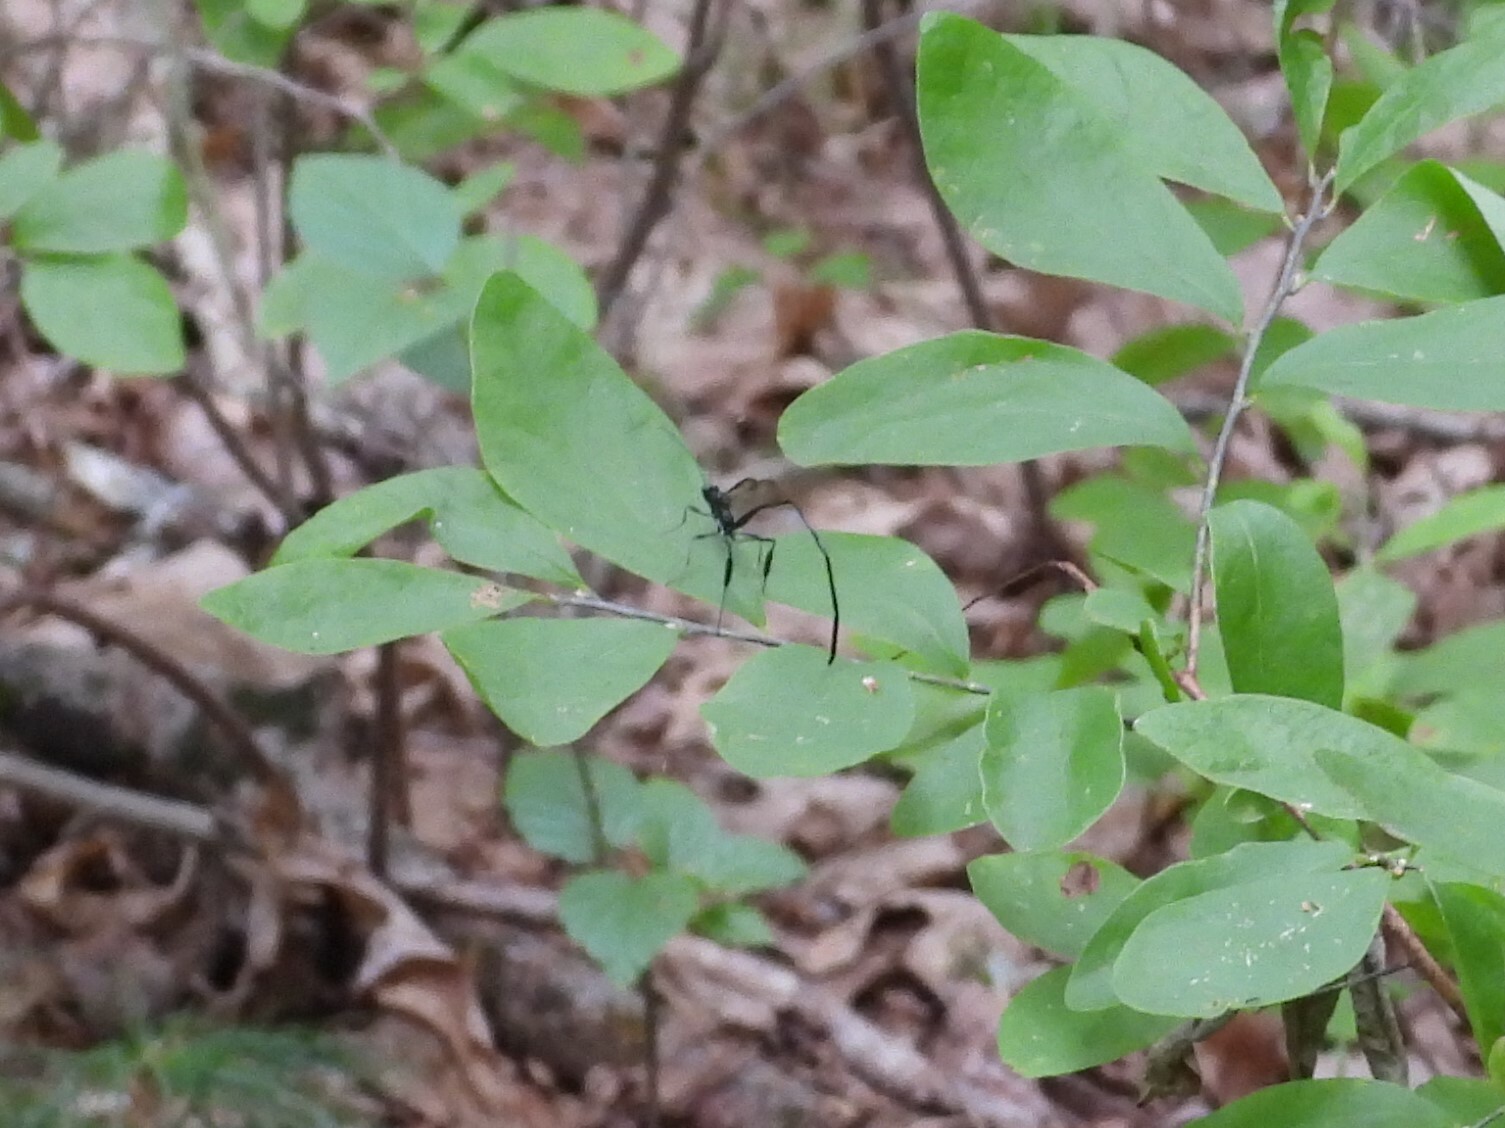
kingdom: Animalia
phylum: Arthropoda
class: Insecta
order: Hymenoptera
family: Pelecinidae
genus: Pelecinus
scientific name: Pelecinus polyturator
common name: American pelecinid wasp
